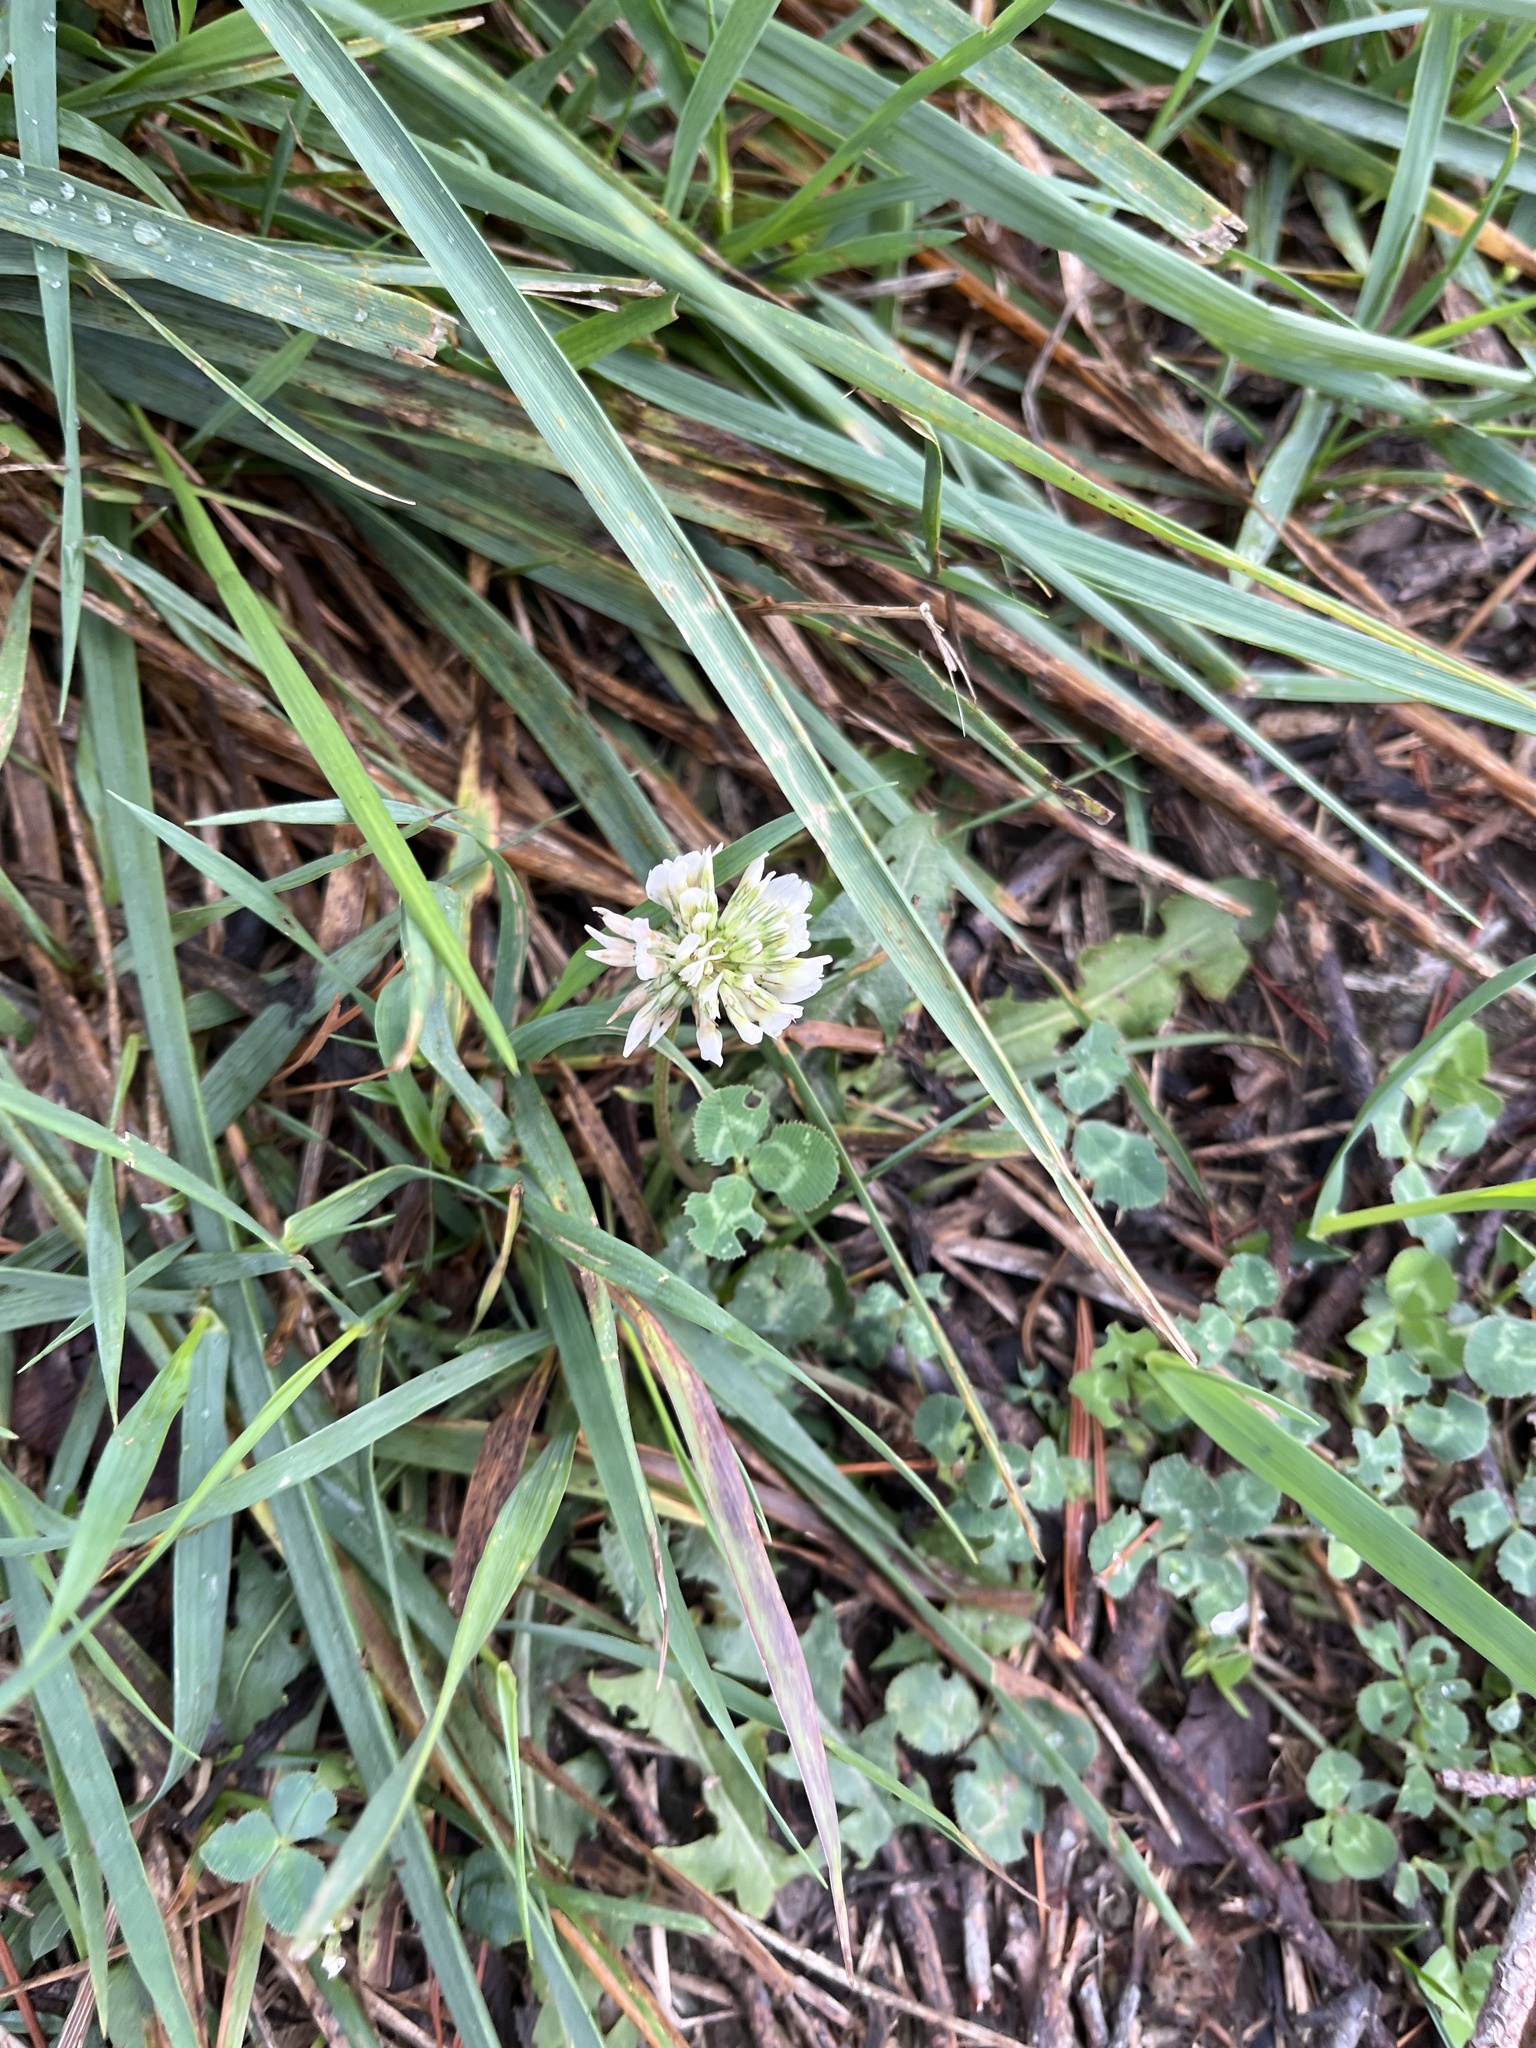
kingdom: Plantae
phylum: Tracheophyta
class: Magnoliopsida
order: Fabales
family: Fabaceae
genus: Trifolium
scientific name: Trifolium repens
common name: White clover
